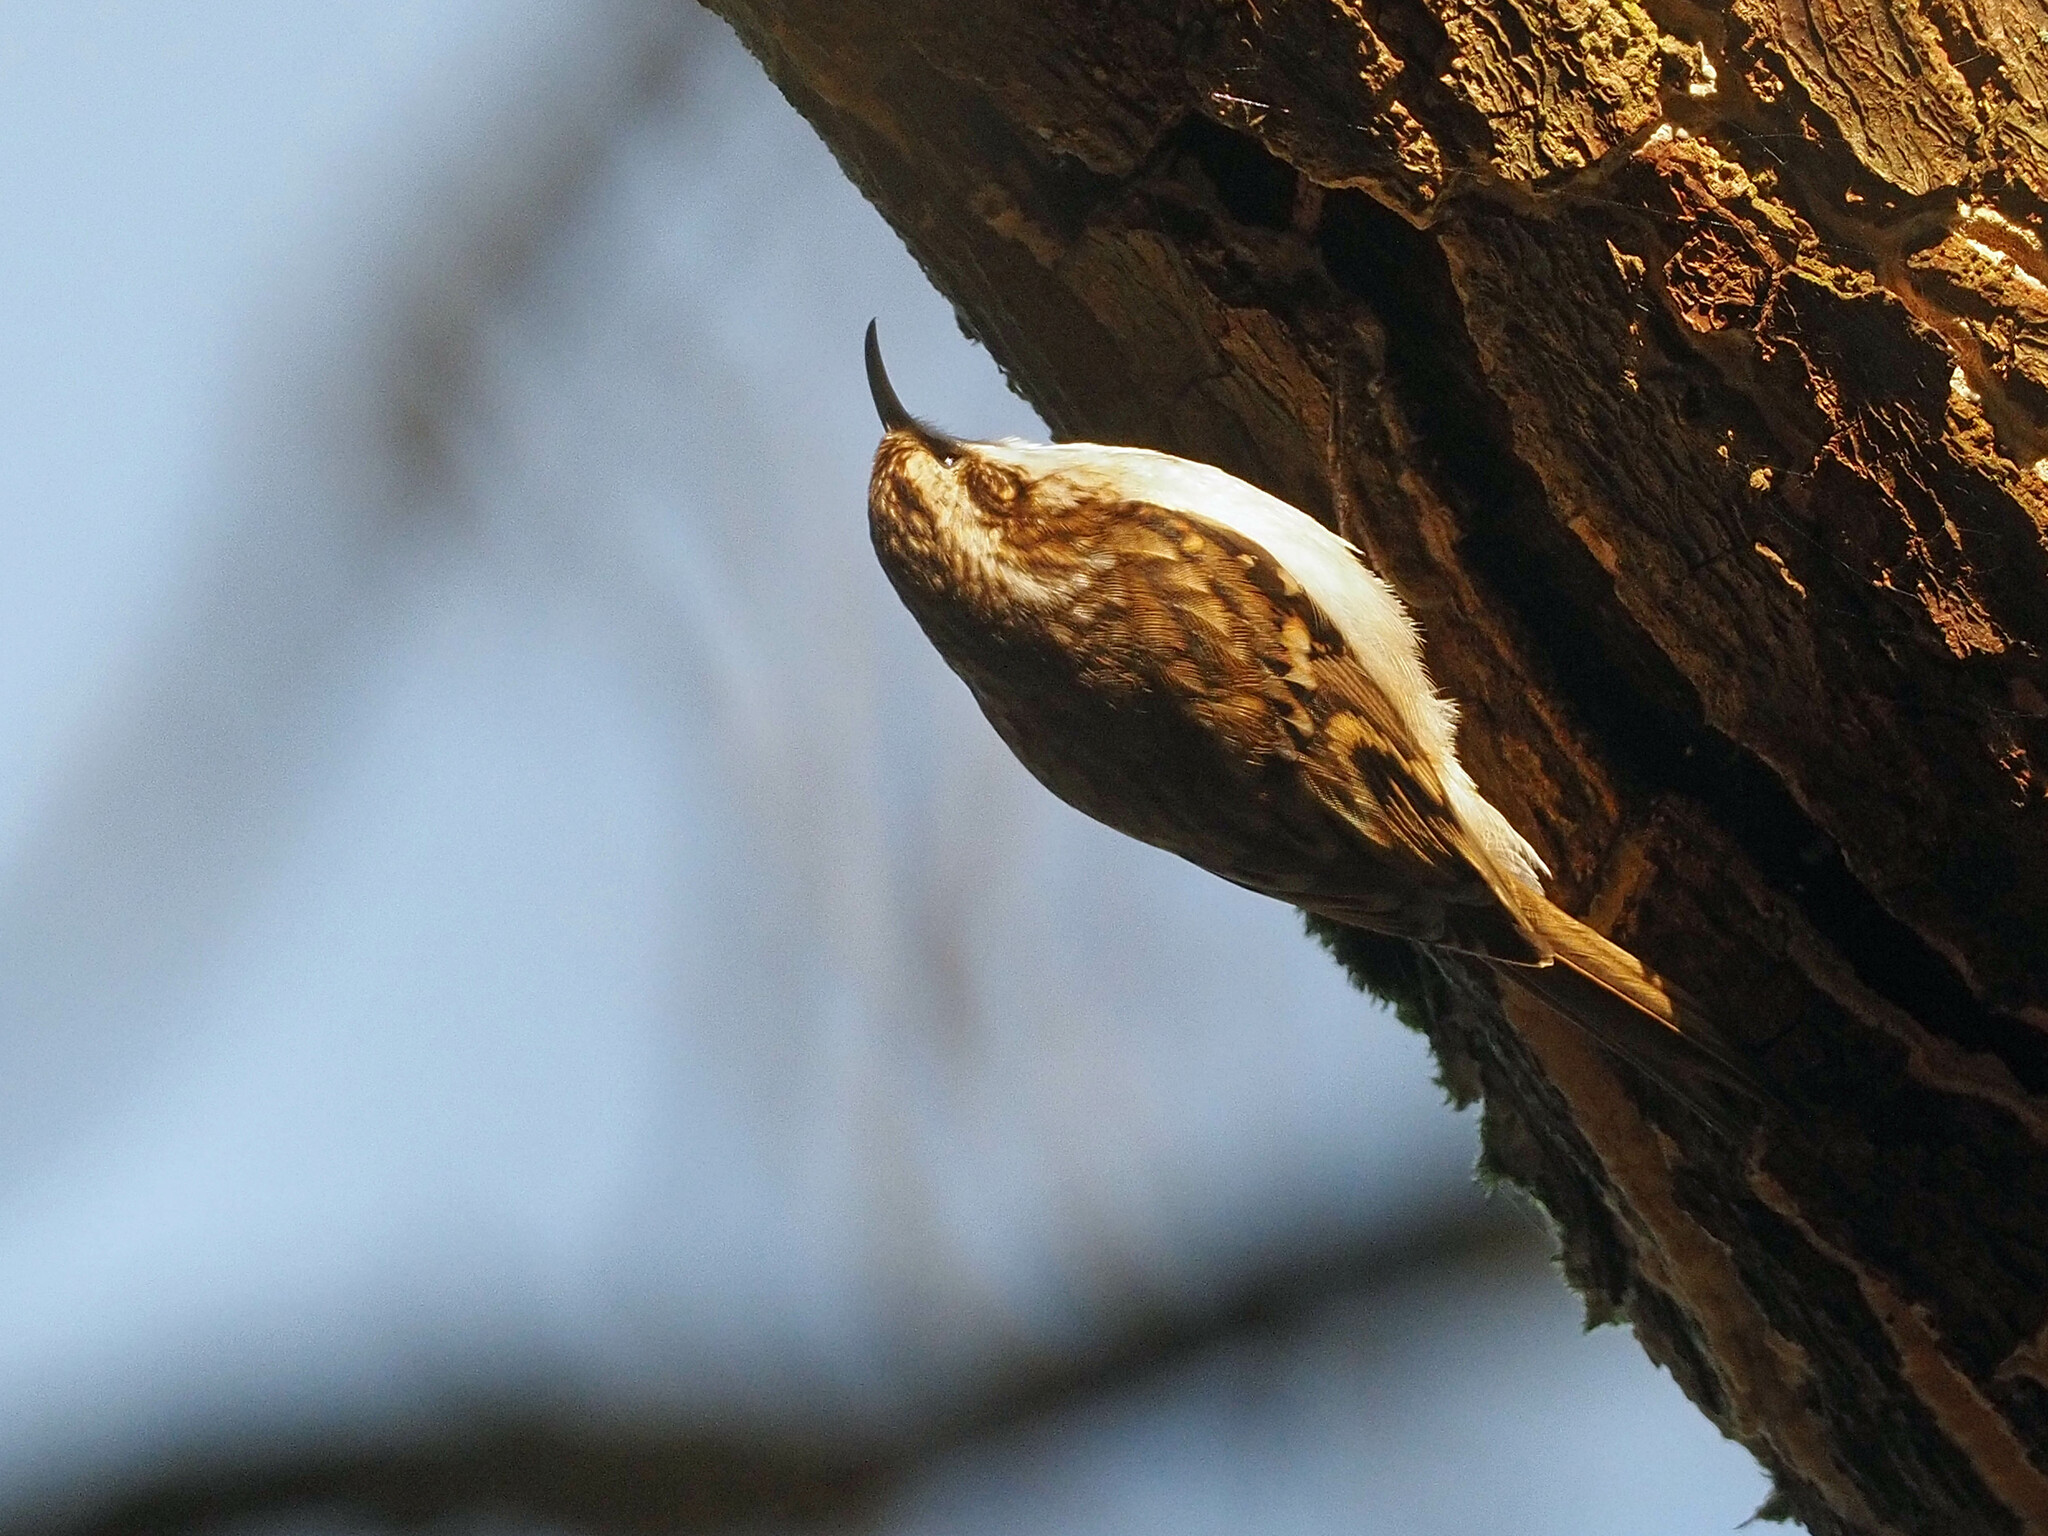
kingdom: Animalia
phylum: Chordata
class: Aves
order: Passeriformes
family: Certhiidae
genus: Certhia
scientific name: Certhia familiaris
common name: Eurasian treecreeper
